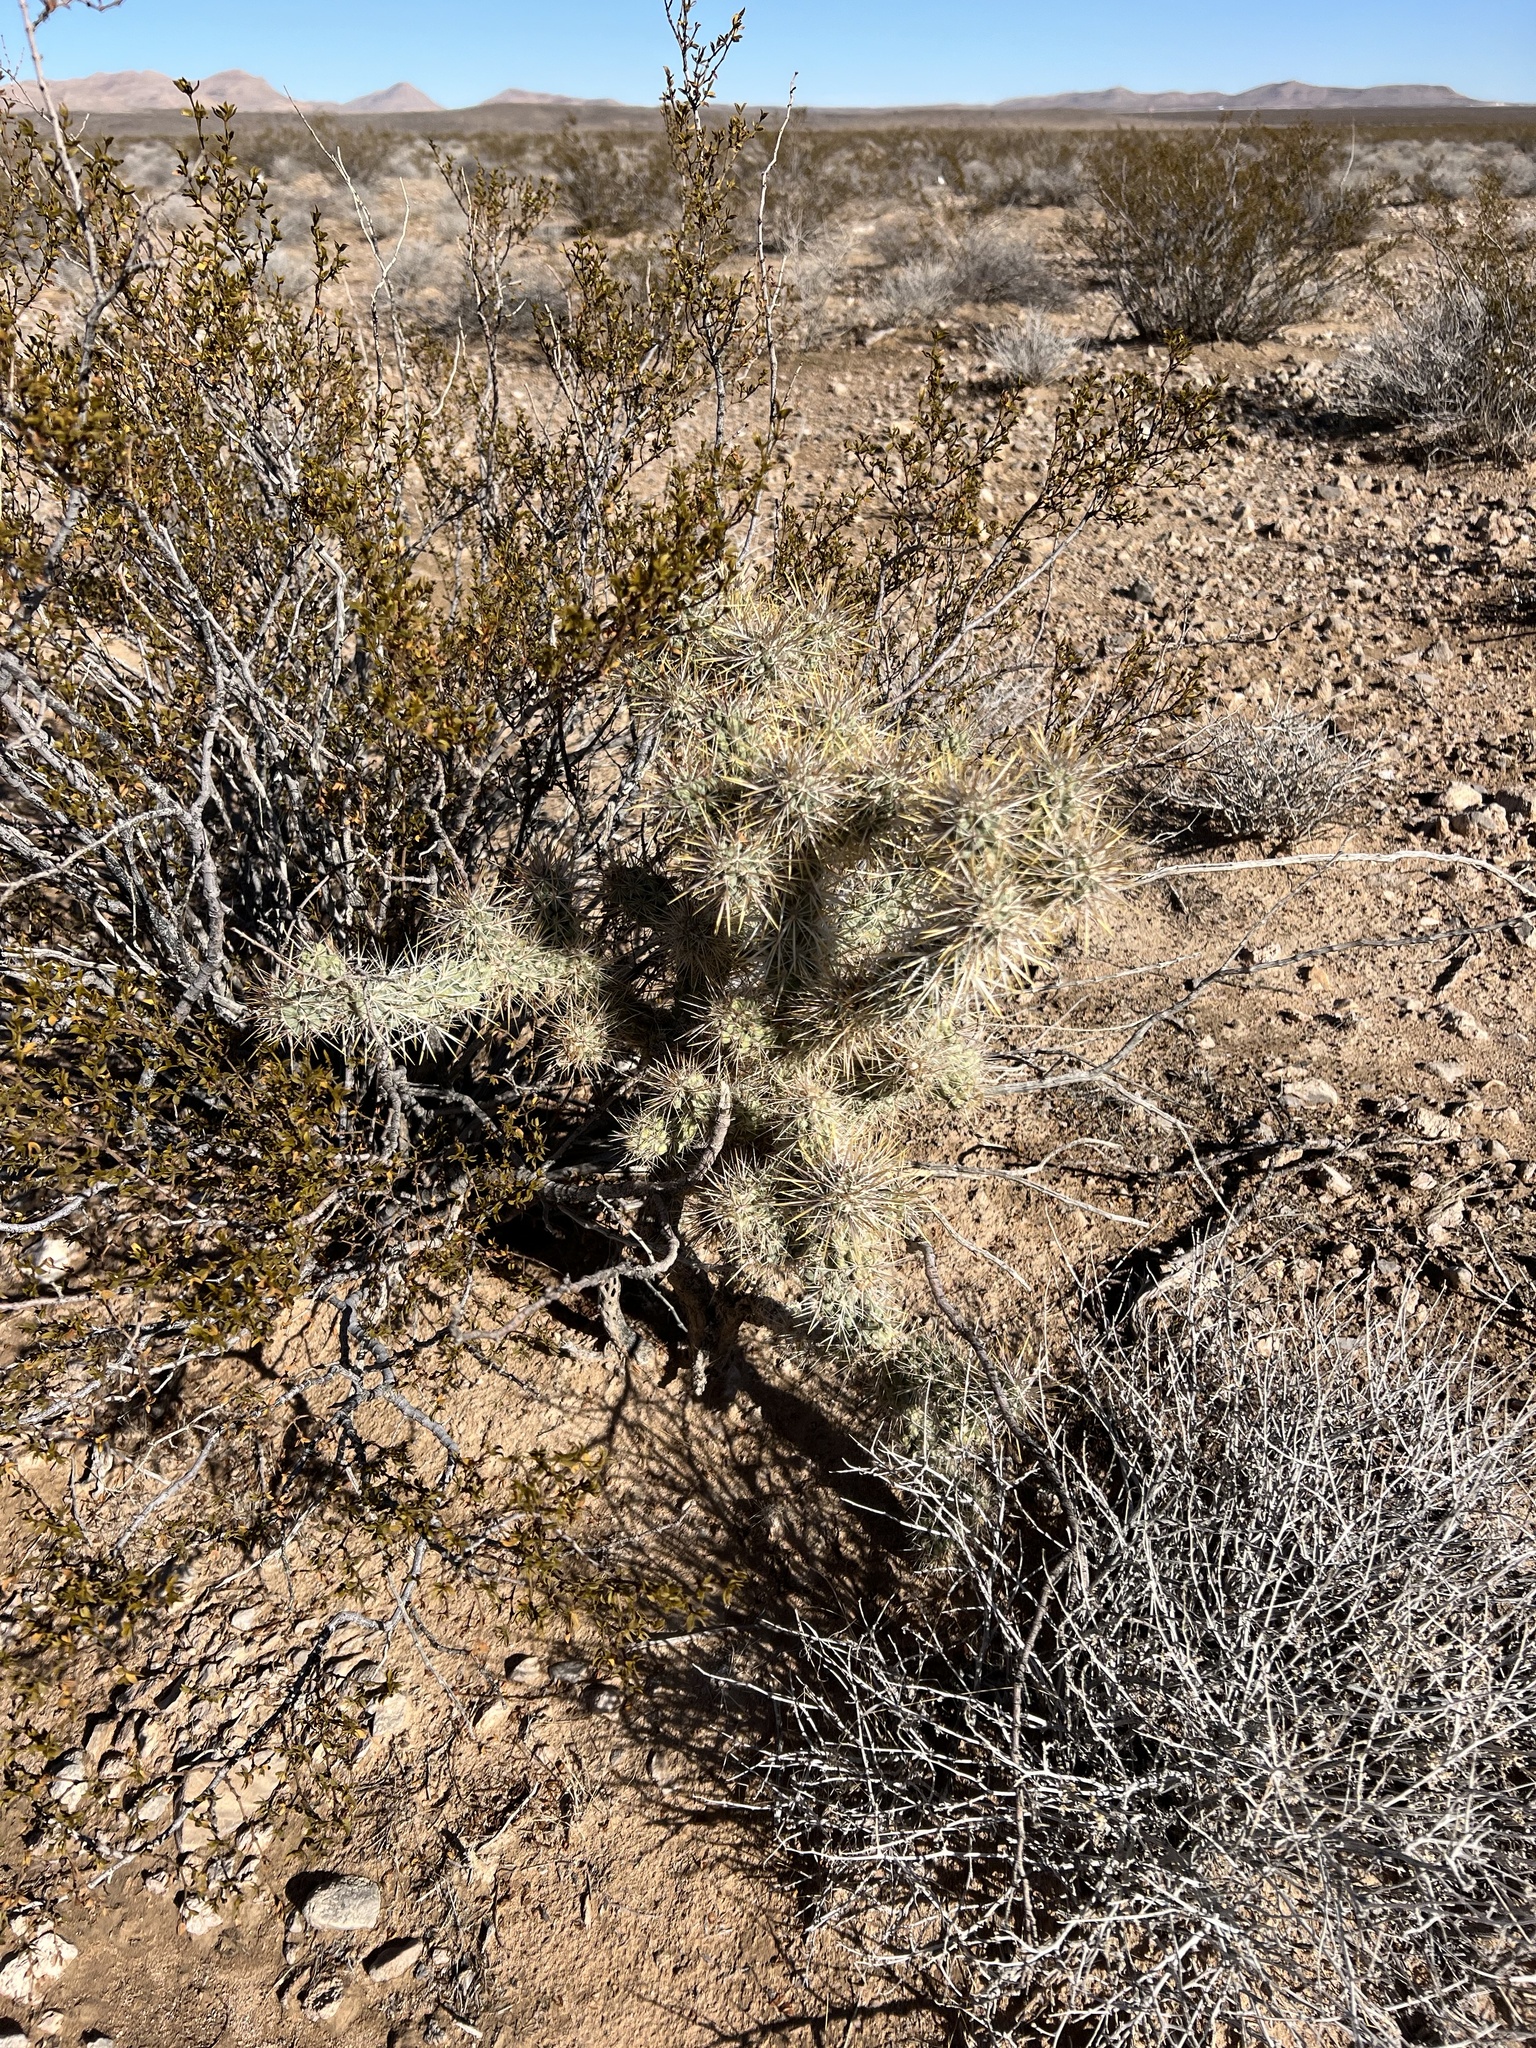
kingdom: Plantae
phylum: Tracheophyta
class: Magnoliopsida
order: Caryophyllales
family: Cactaceae
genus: Cylindropuntia
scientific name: Cylindropuntia echinocarpa
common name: Ground cholla
